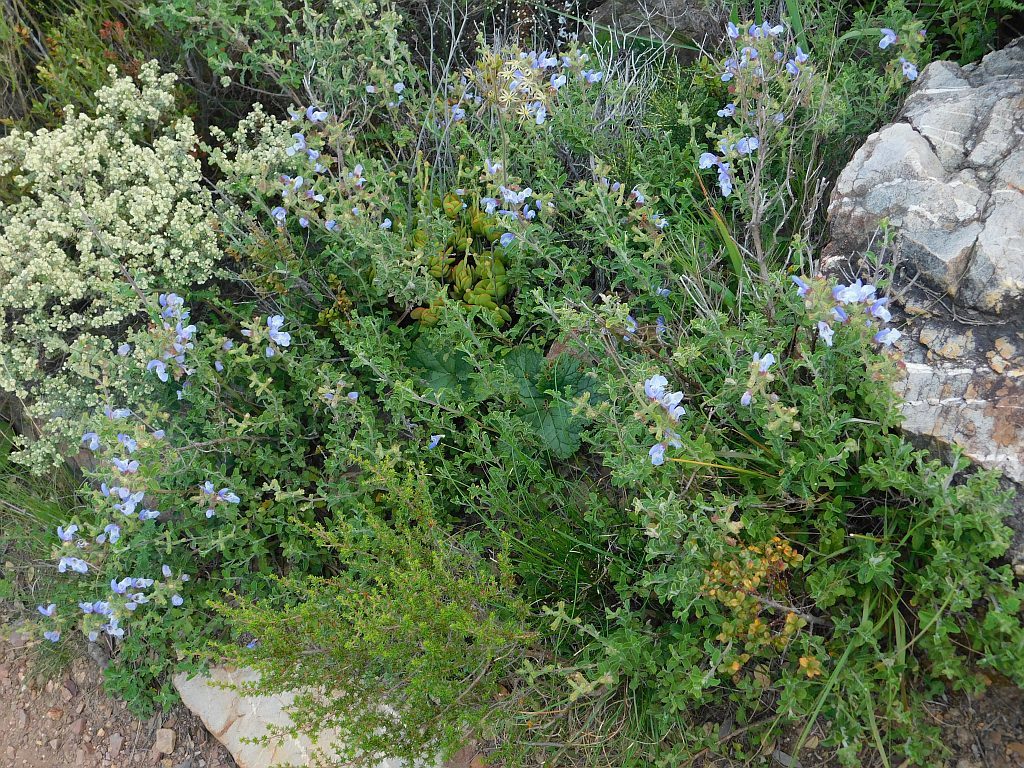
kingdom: Plantae
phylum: Tracheophyta
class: Magnoliopsida
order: Lamiales
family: Lamiaceae
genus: Salvia
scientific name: Salvia africana
